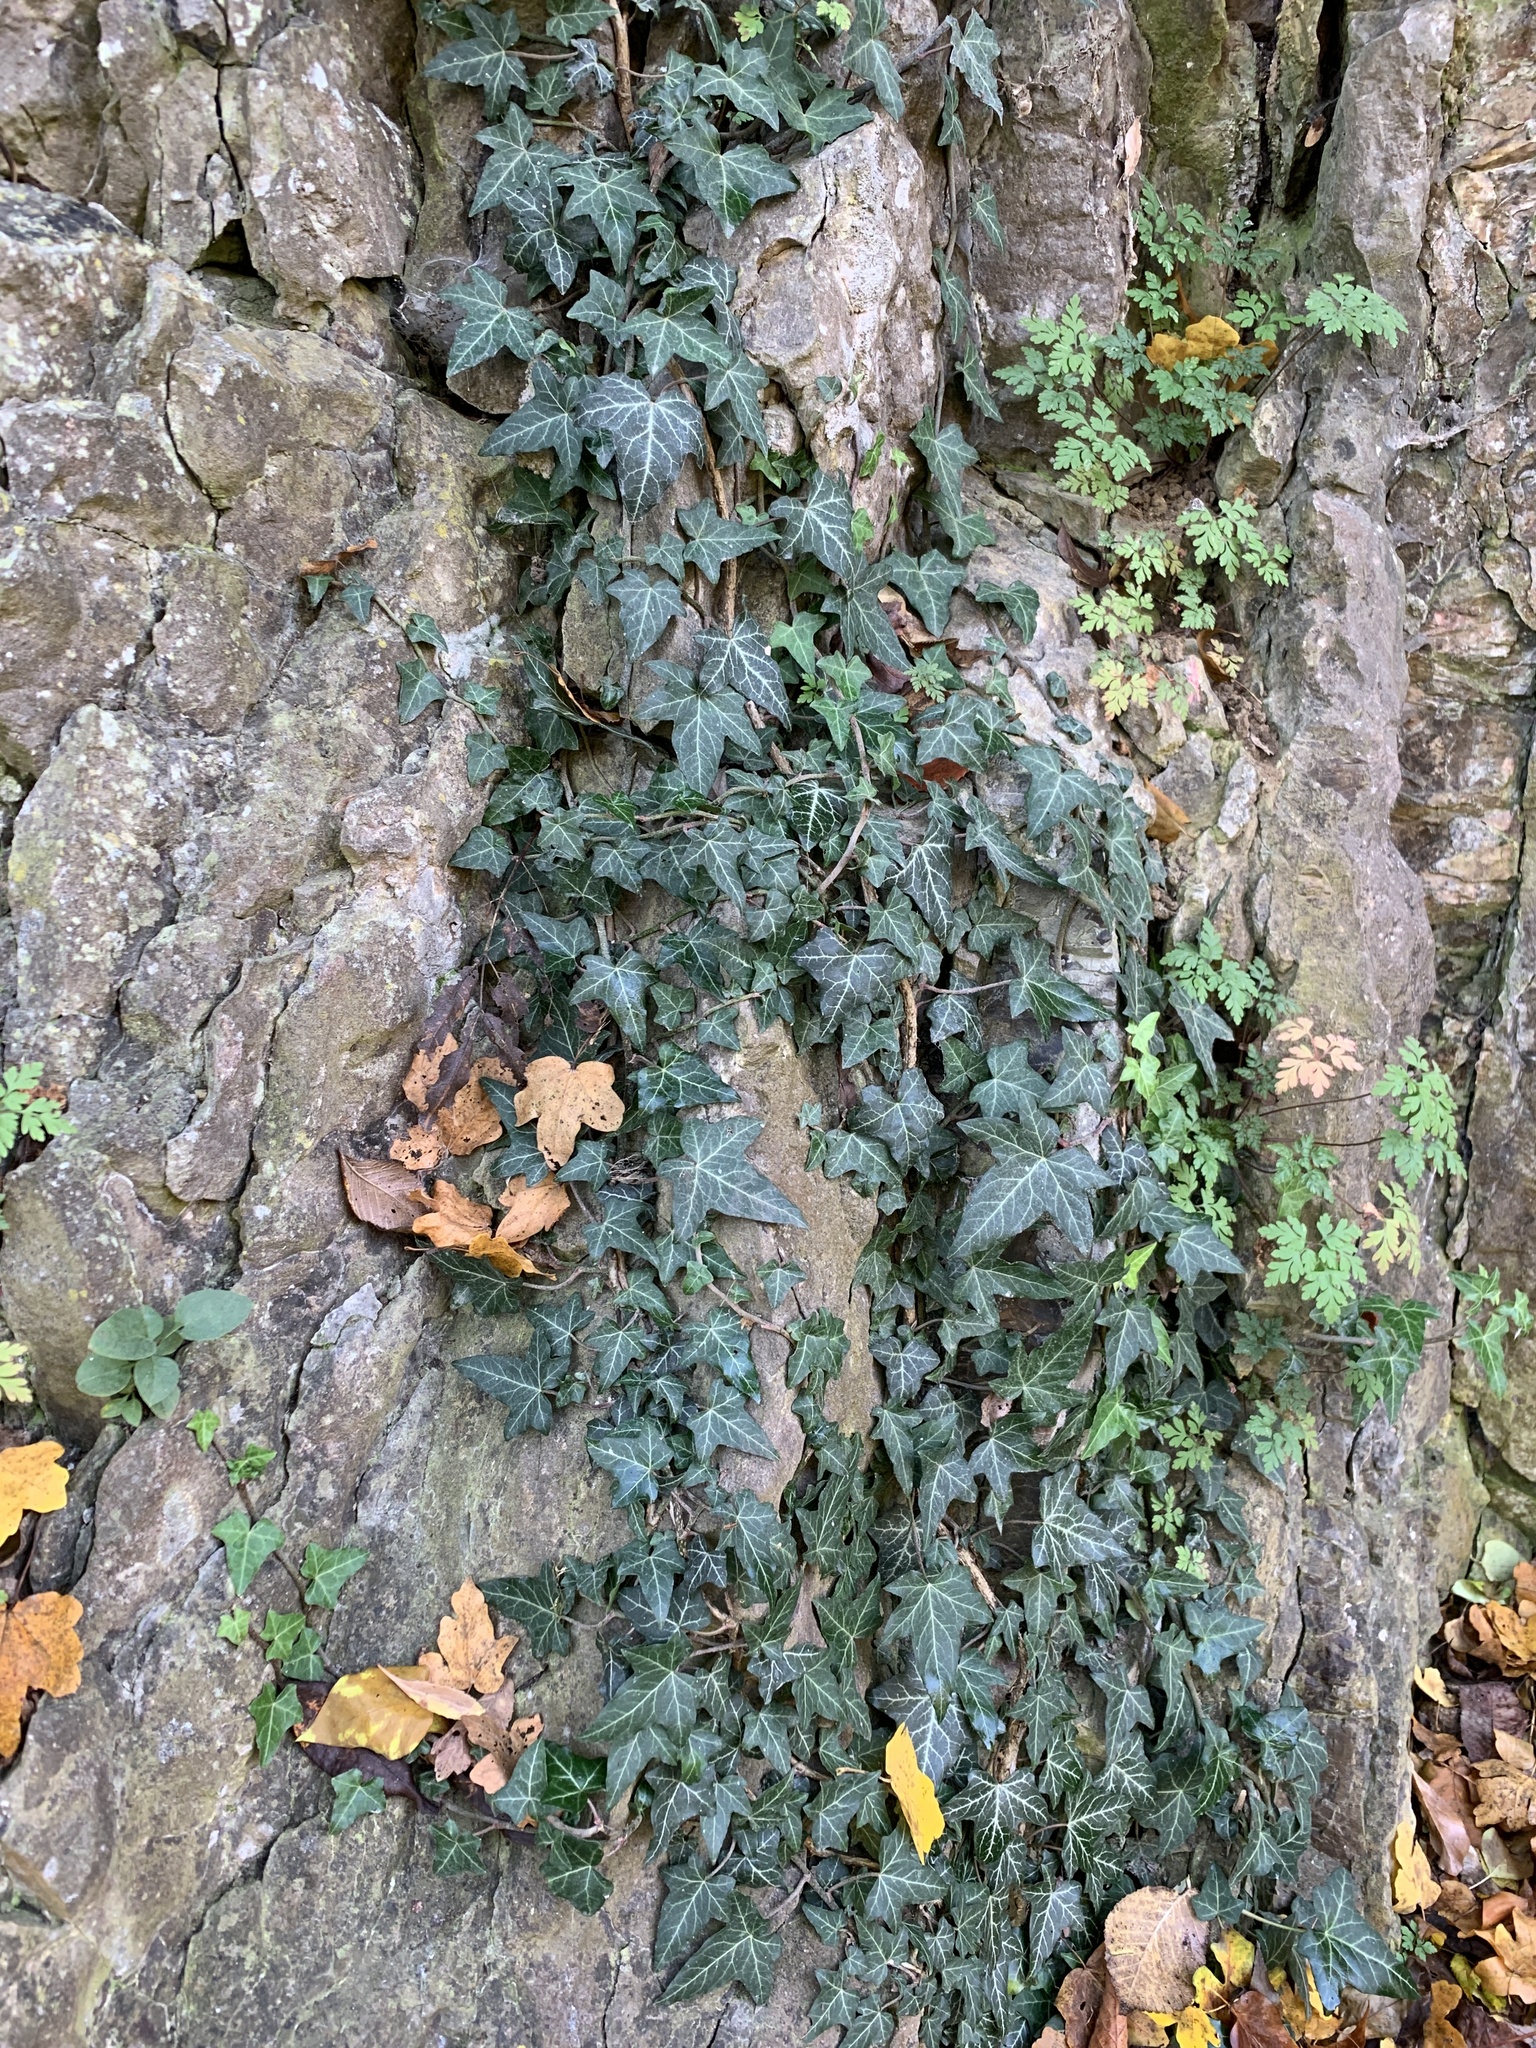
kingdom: Plantae
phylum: Tracheophyta
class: Magnoliopsida
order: Apiales
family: Araliaceae
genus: Hedera
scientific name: Hedera helix
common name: Ivy
